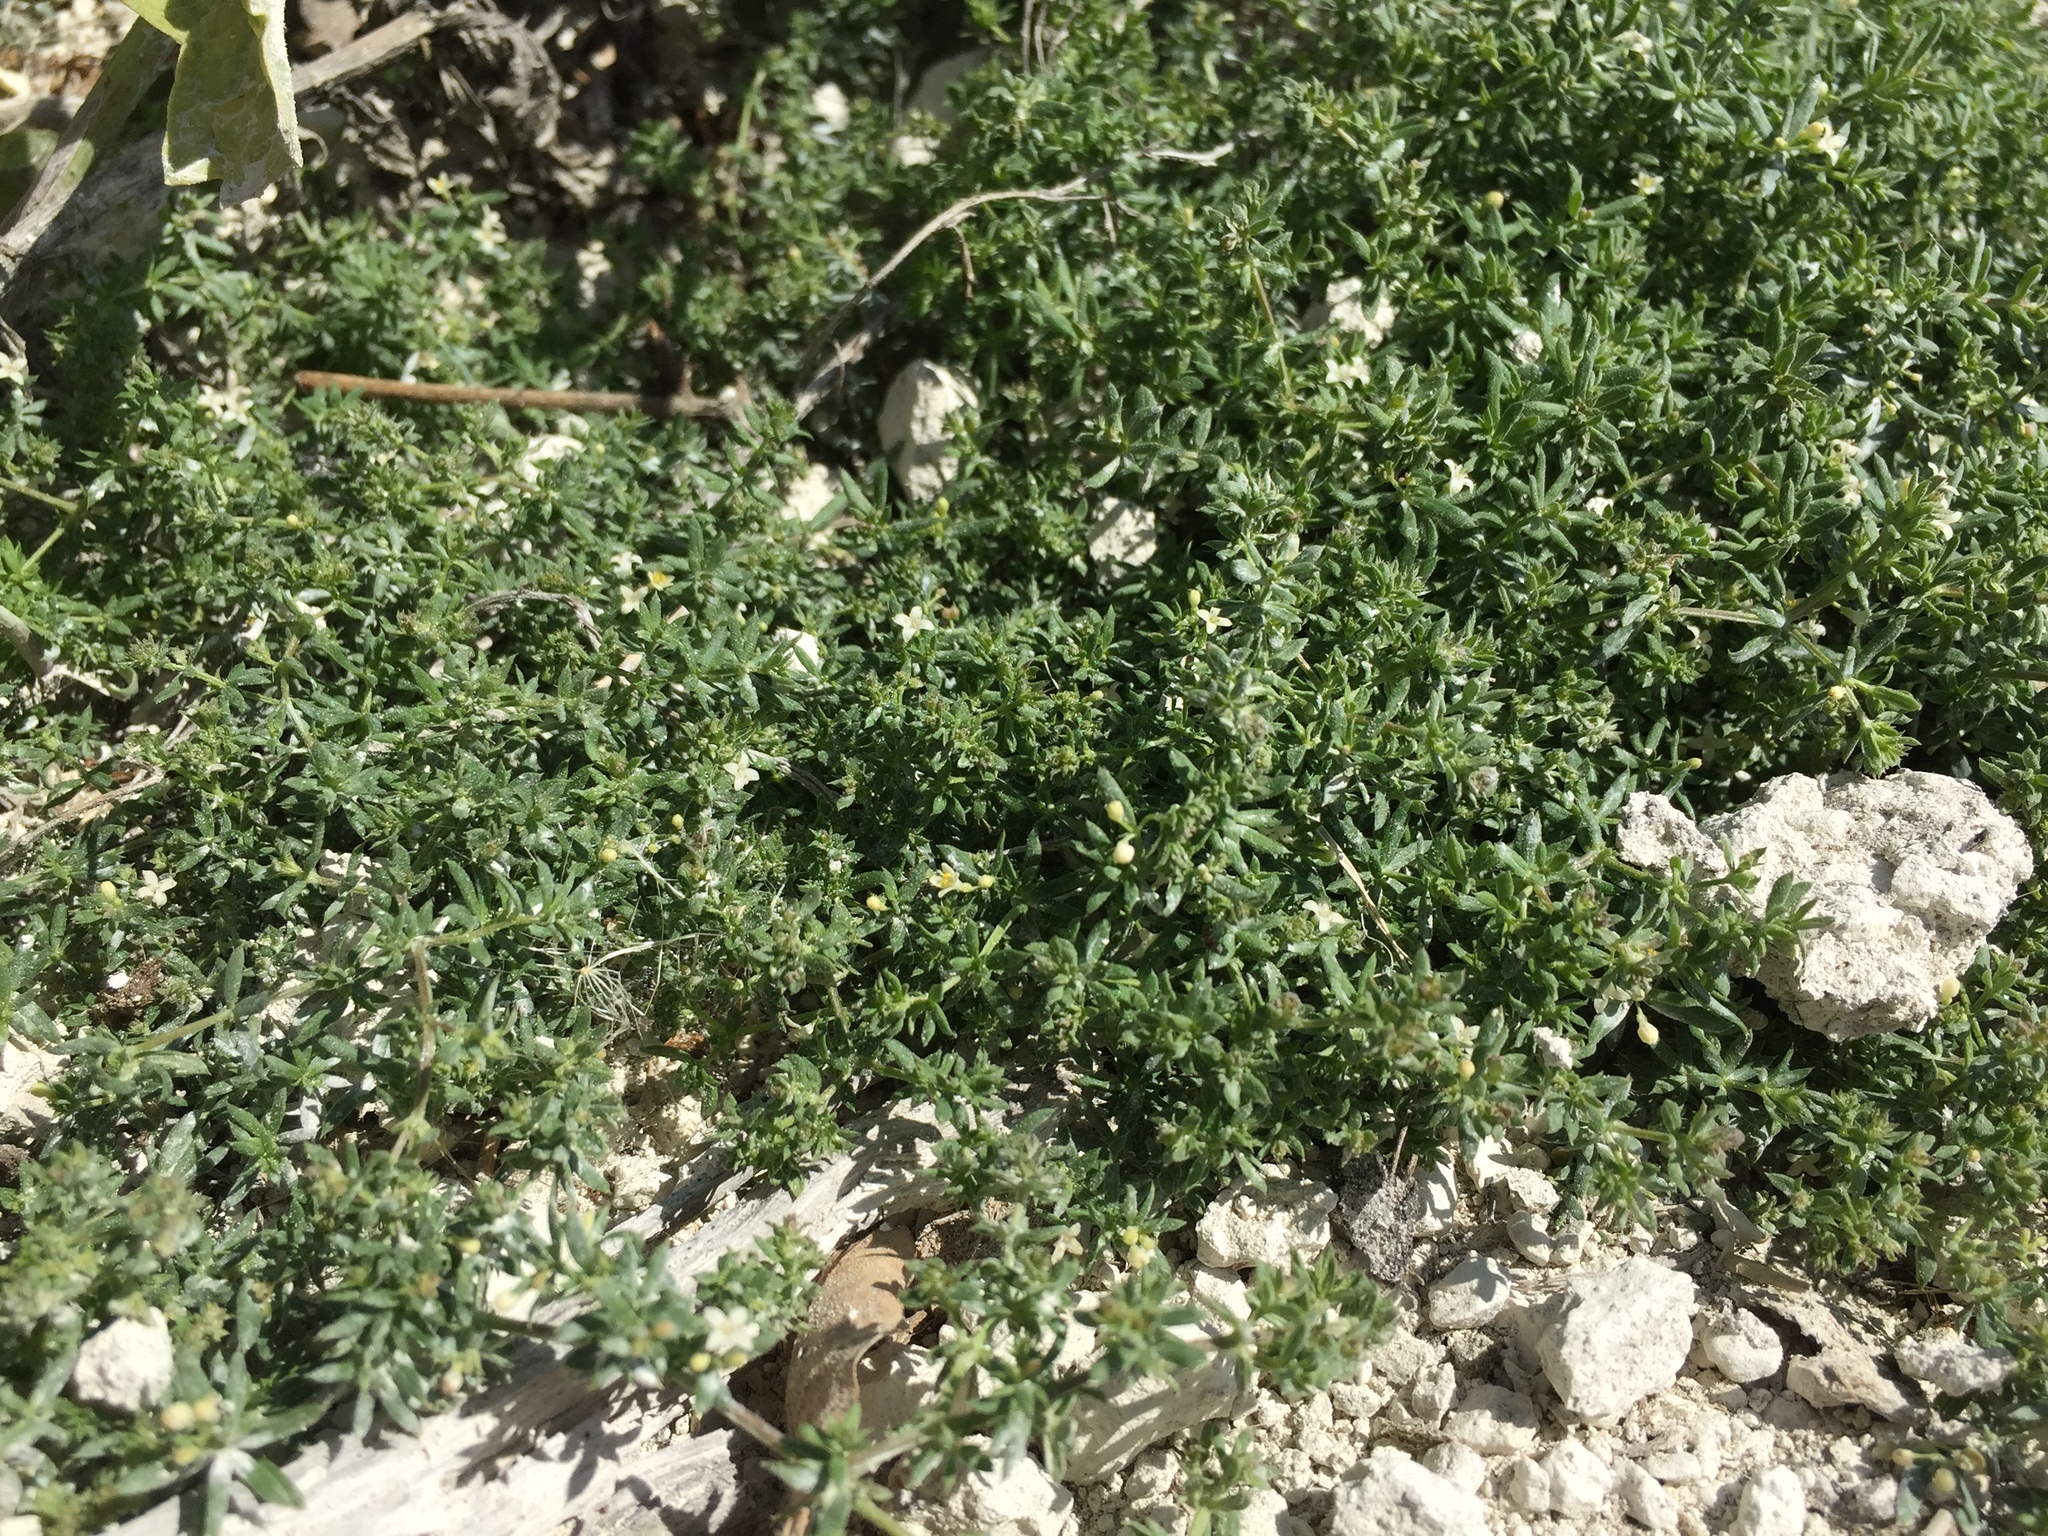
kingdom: Plantae
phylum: Tracheophyta
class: Magnoliopsida
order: Gentianales
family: Rubiaceae
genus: Galium
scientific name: Galium humifusum
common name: Spreading bedstraw
